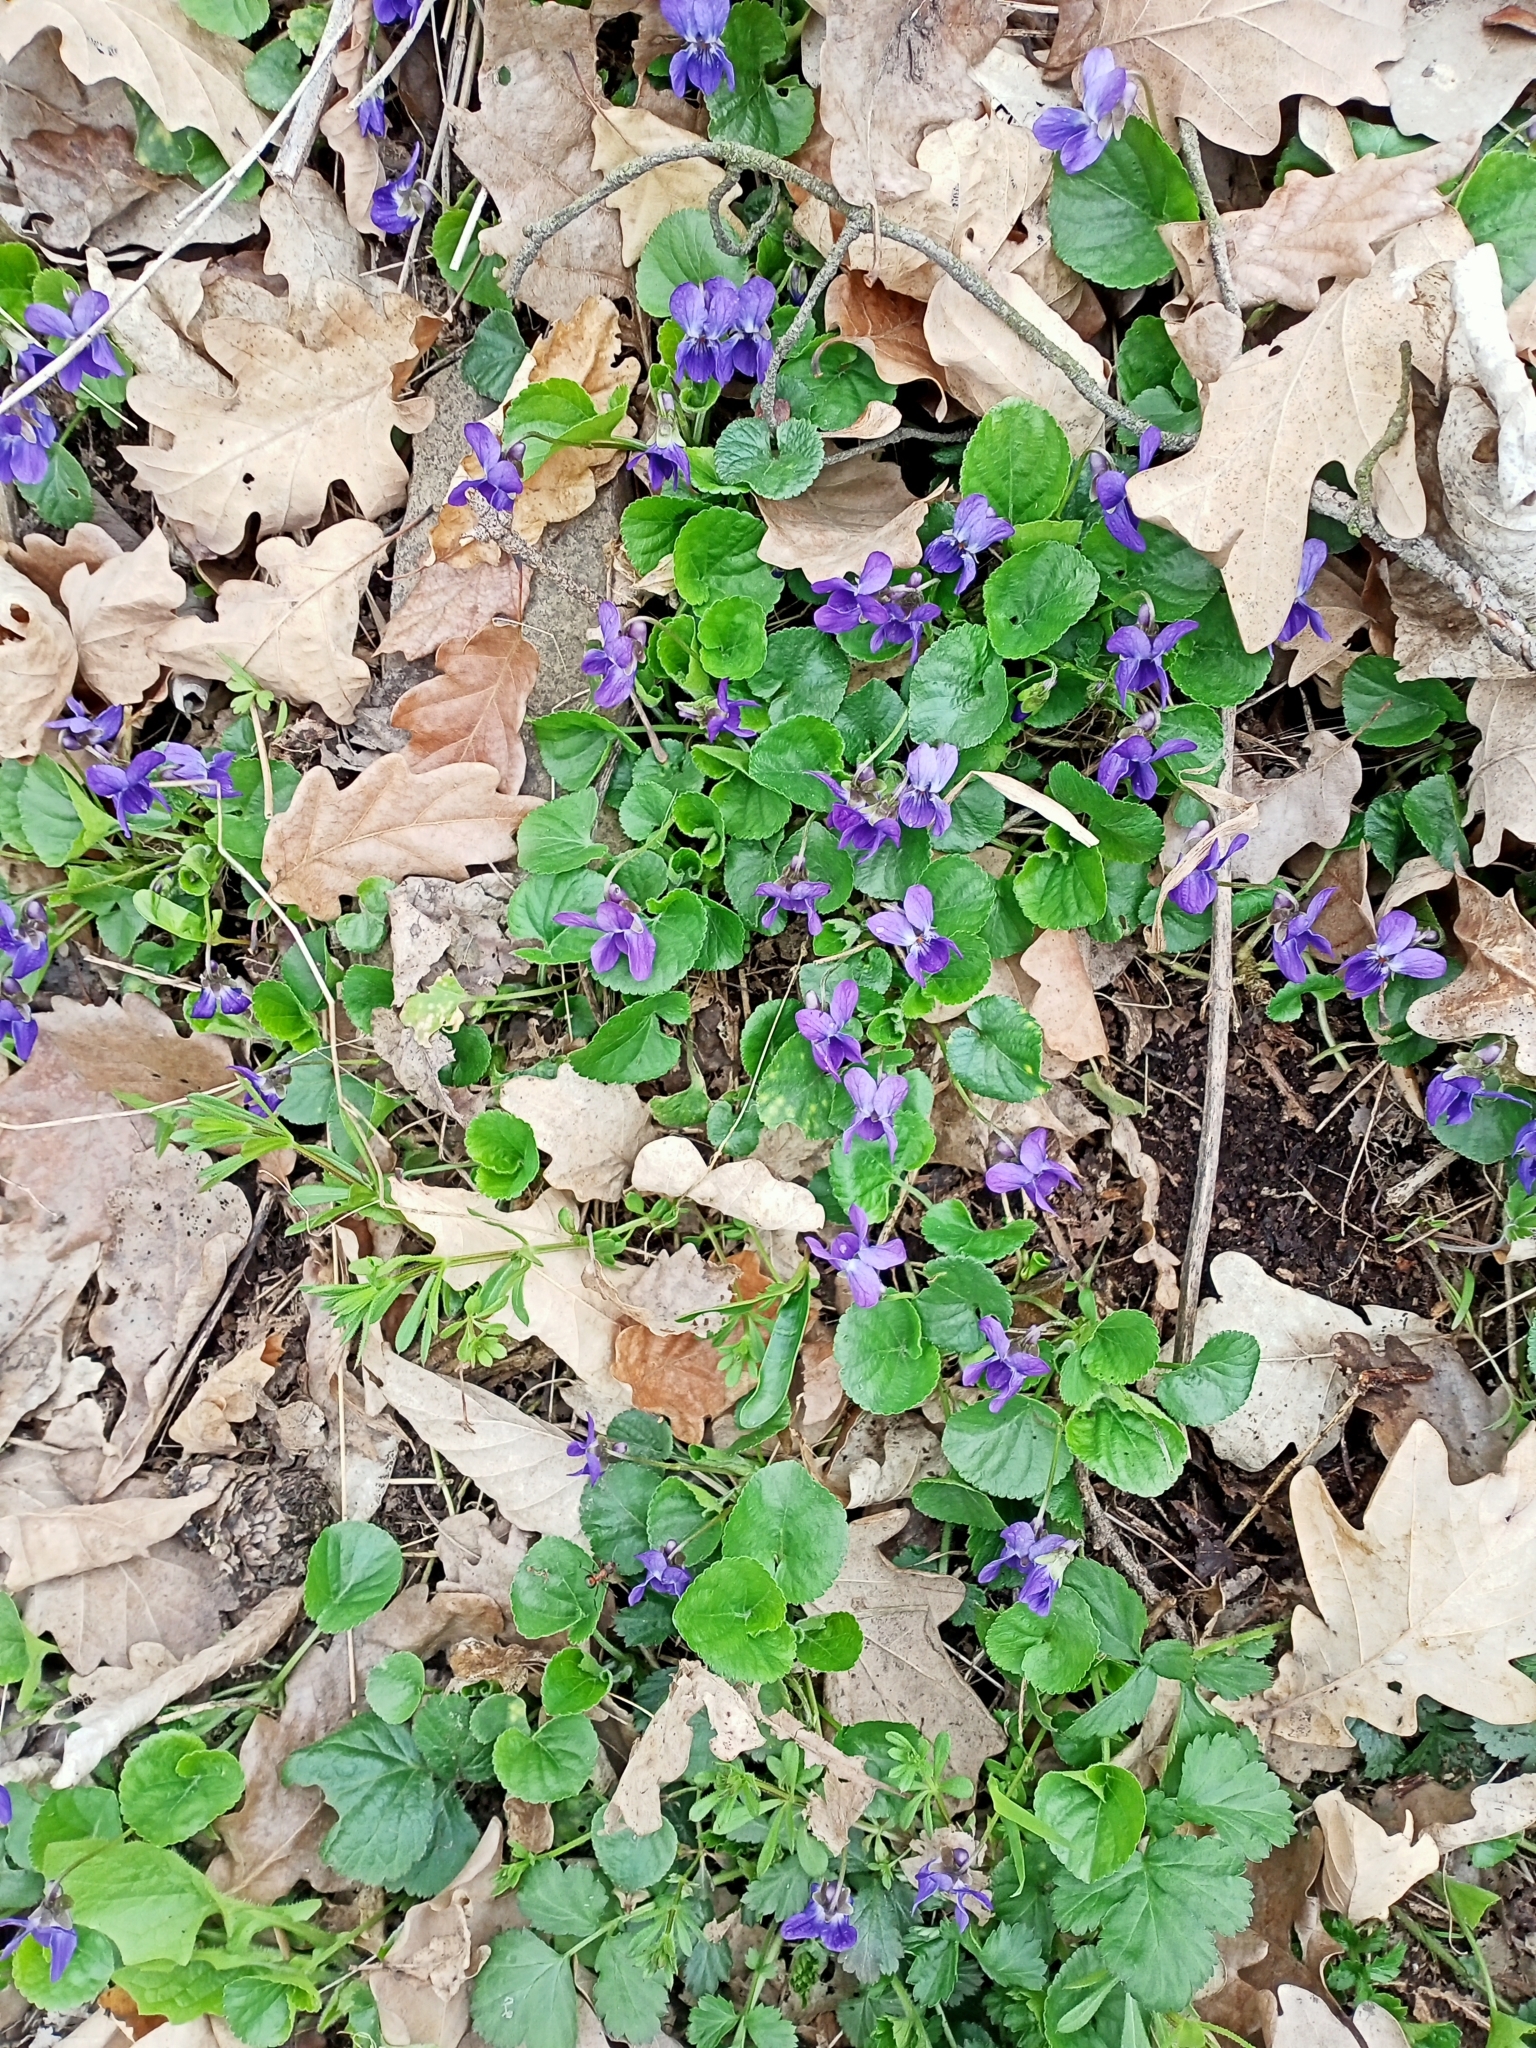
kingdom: Plantae
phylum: Tracheophyta
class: Magnoliopsida
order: Malpighiales
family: Violaceae
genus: Viola
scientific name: Viola odorata
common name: Sweet violet
